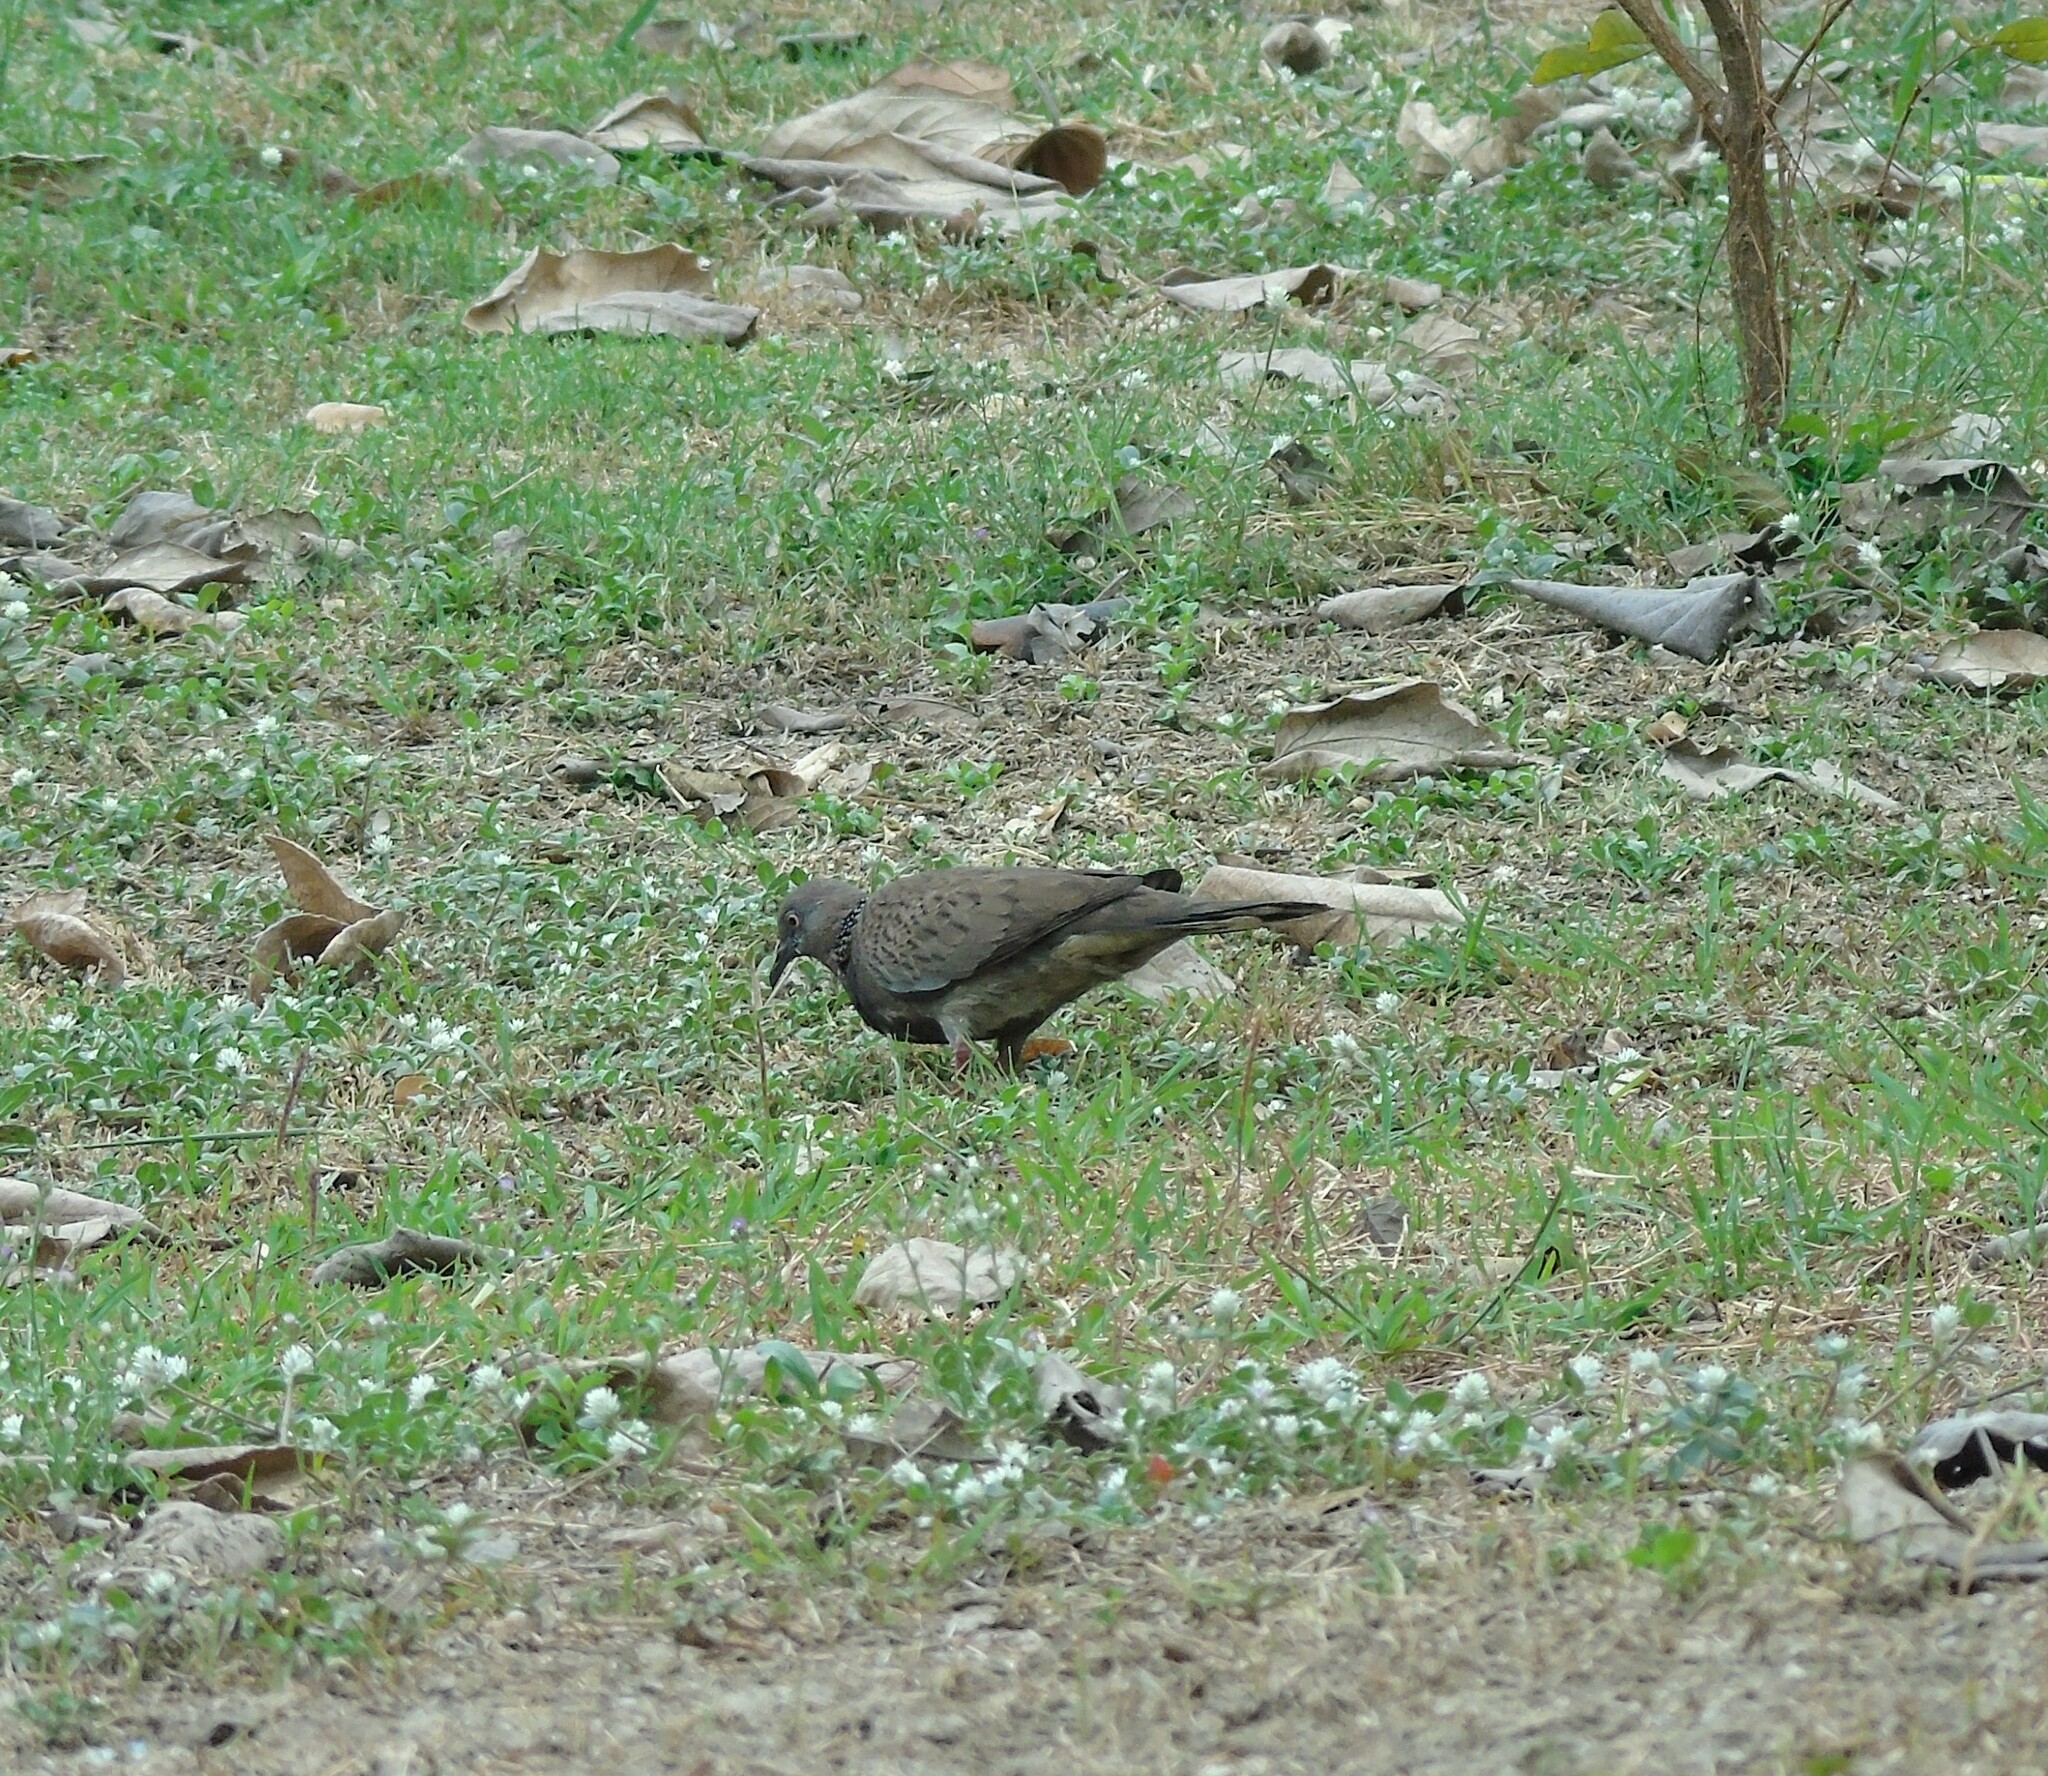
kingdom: Animalia
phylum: Chordata
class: Aves
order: Columbiformes
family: Columbidae
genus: Spilopelia
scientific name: Spilopelia chinensis
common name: Spotted dove
